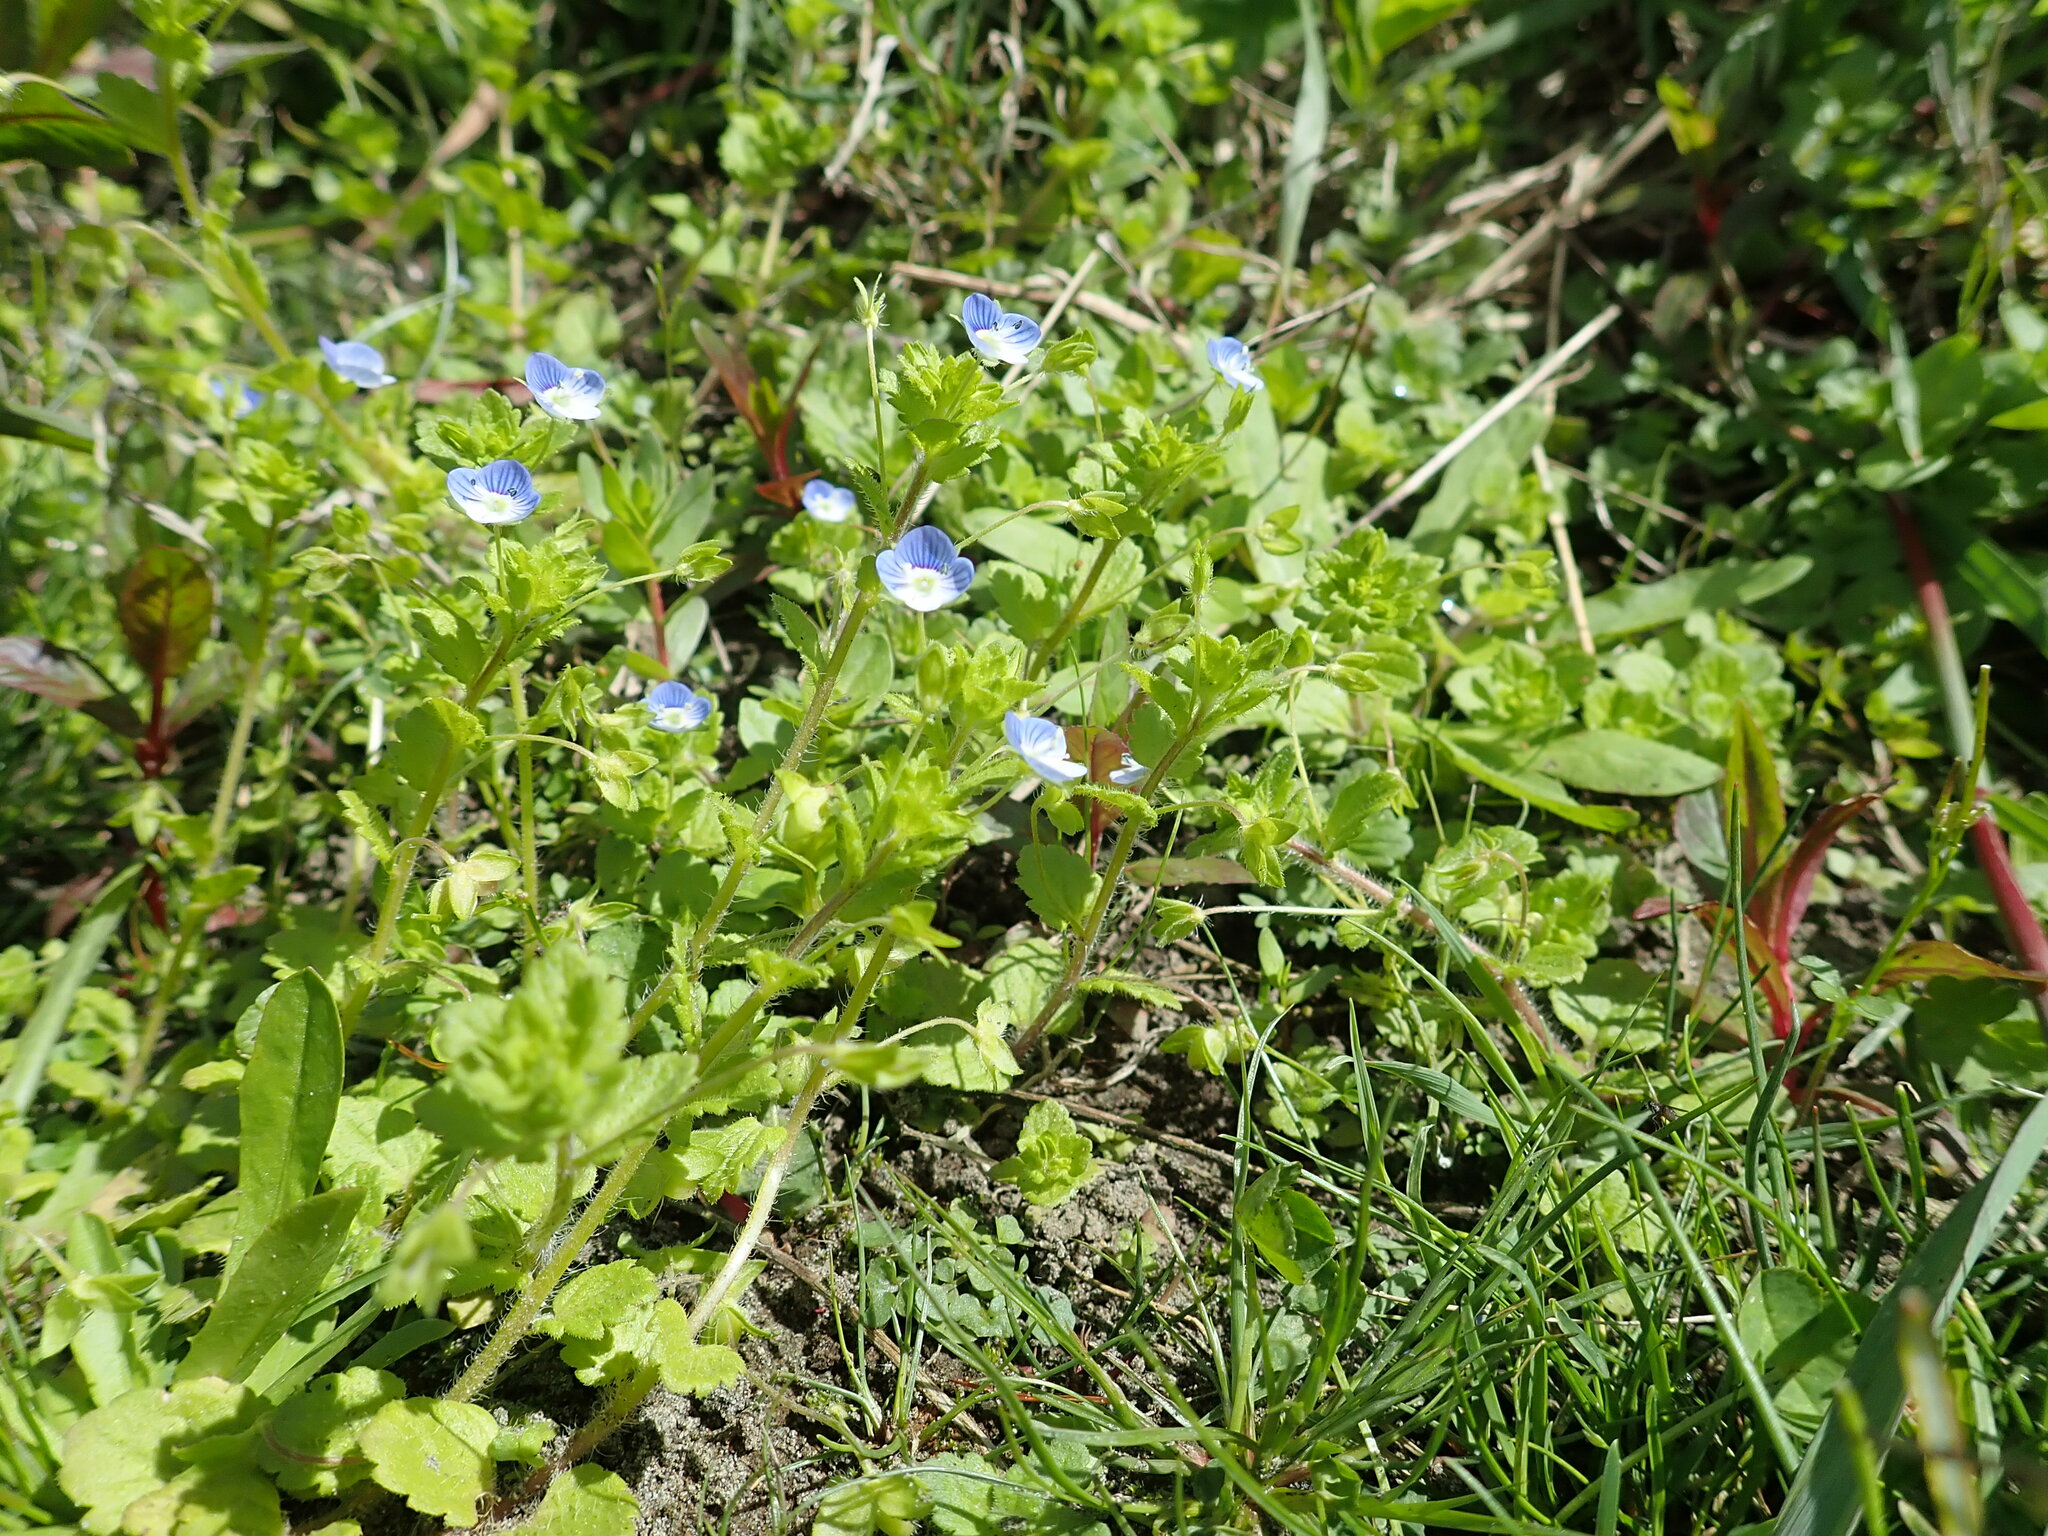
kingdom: Plantae
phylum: Tracheophyta
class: Magnoliopsida
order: Lamiales
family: Plantaginaceae
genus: Veronica
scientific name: Veronica persica
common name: Common field-speedwell
